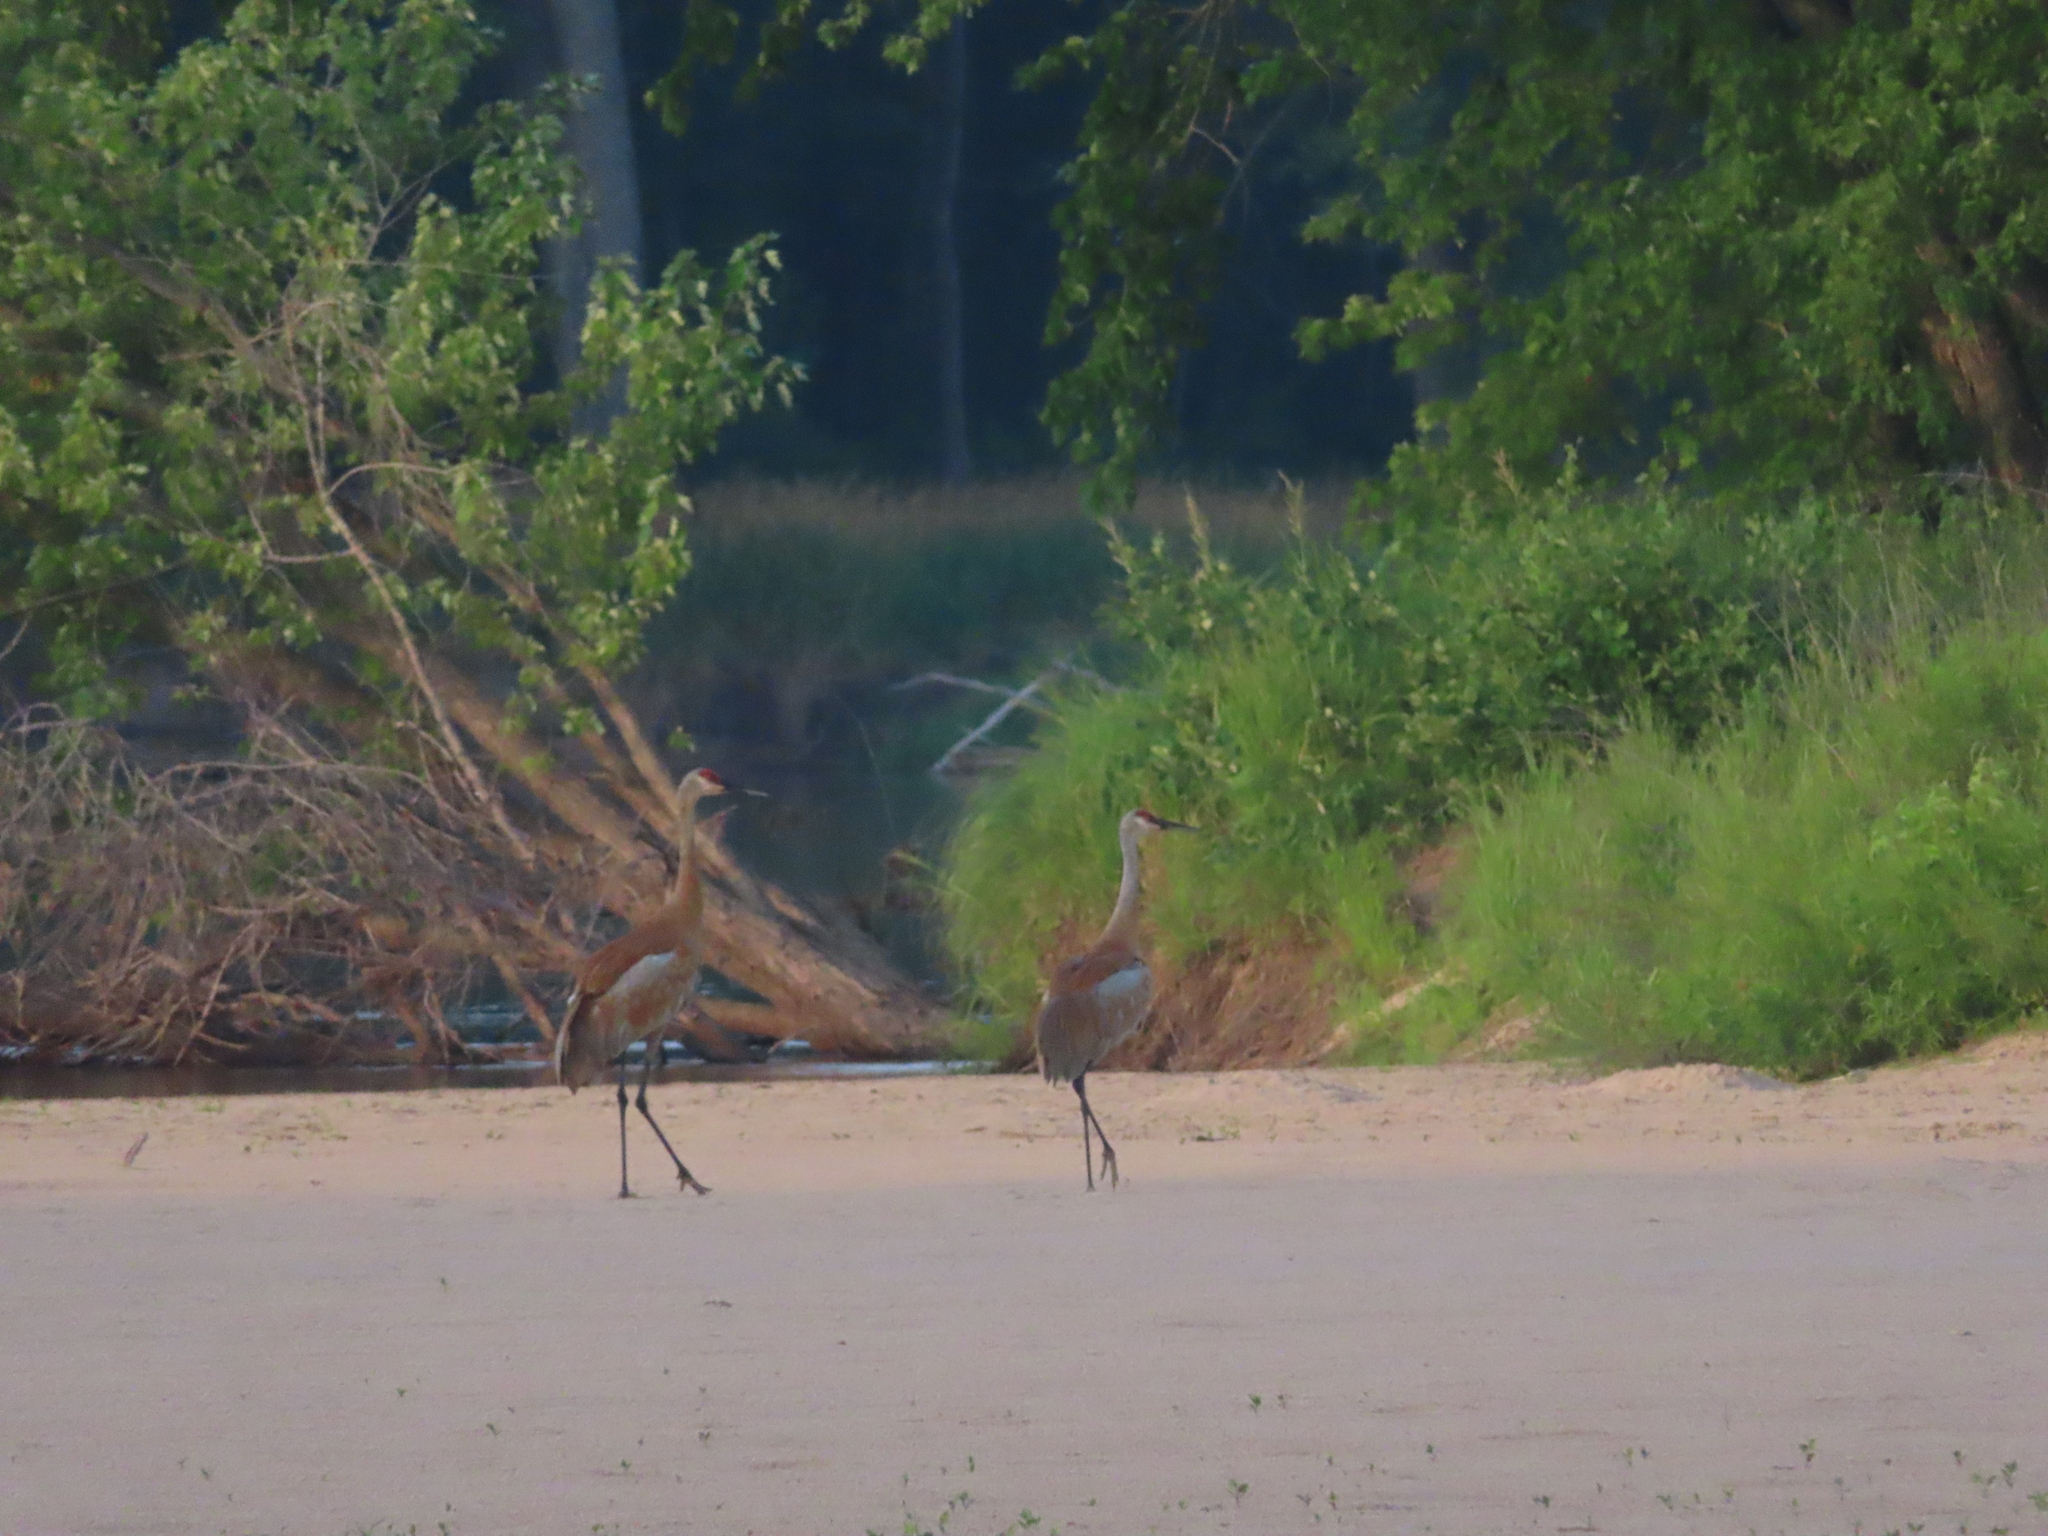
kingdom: Animalia
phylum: Chordata
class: Aves
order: Gruiformes
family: Gruidae
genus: Grus
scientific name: Grus canadensis
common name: Sandhill crane
